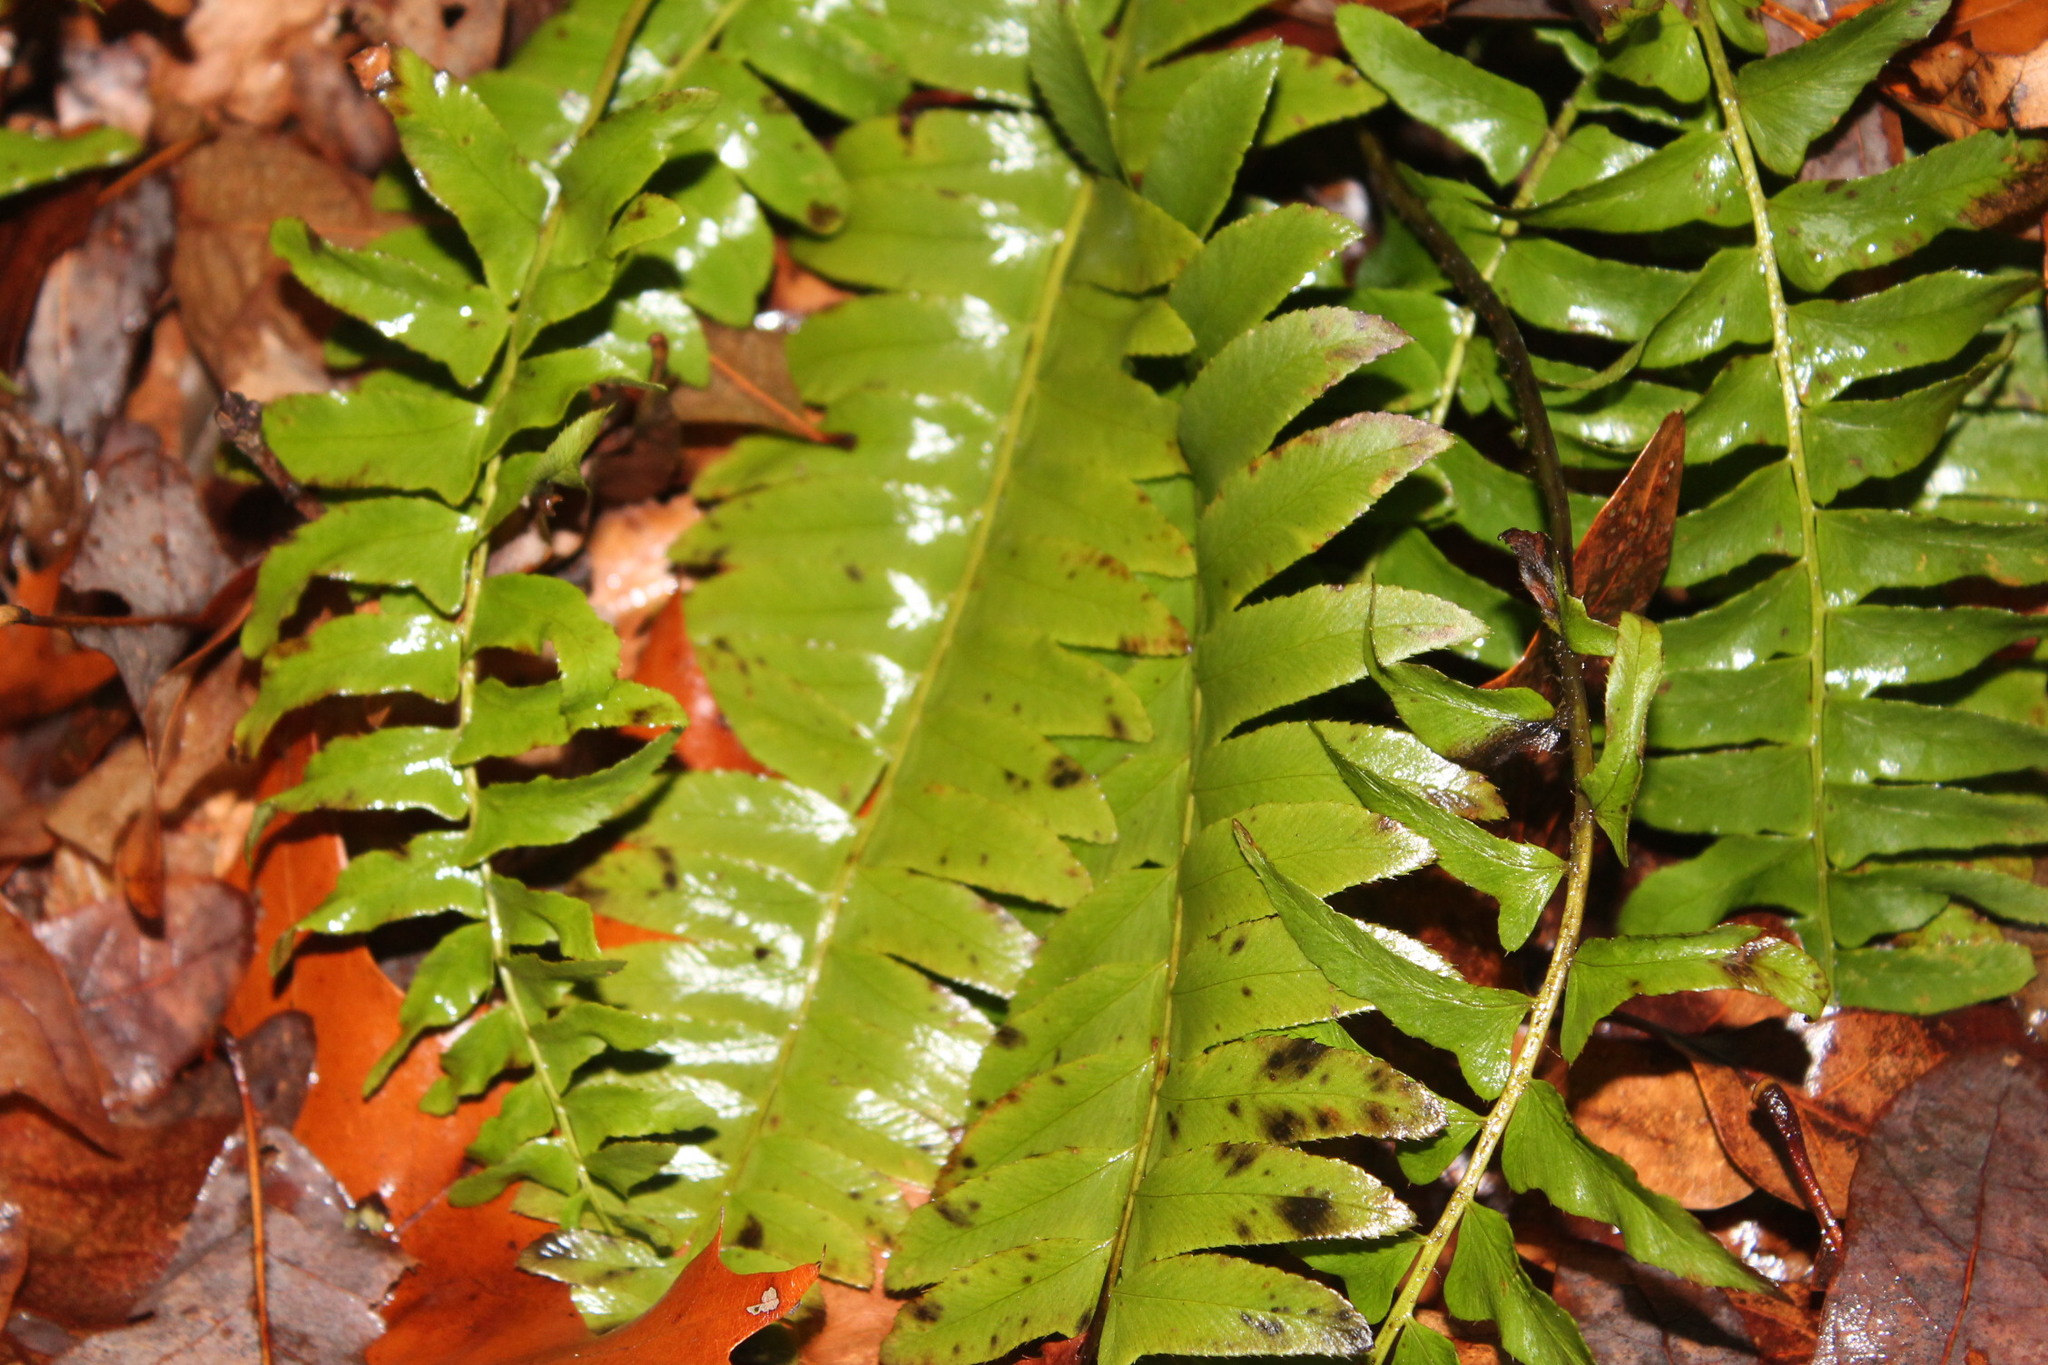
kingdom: Plantae
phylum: Tracheophyta
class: Polypodiopsida
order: Polypodiales
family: Dryopteridaceae
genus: Polystichum
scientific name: Polystichum acrostichoides
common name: Christmas fern
